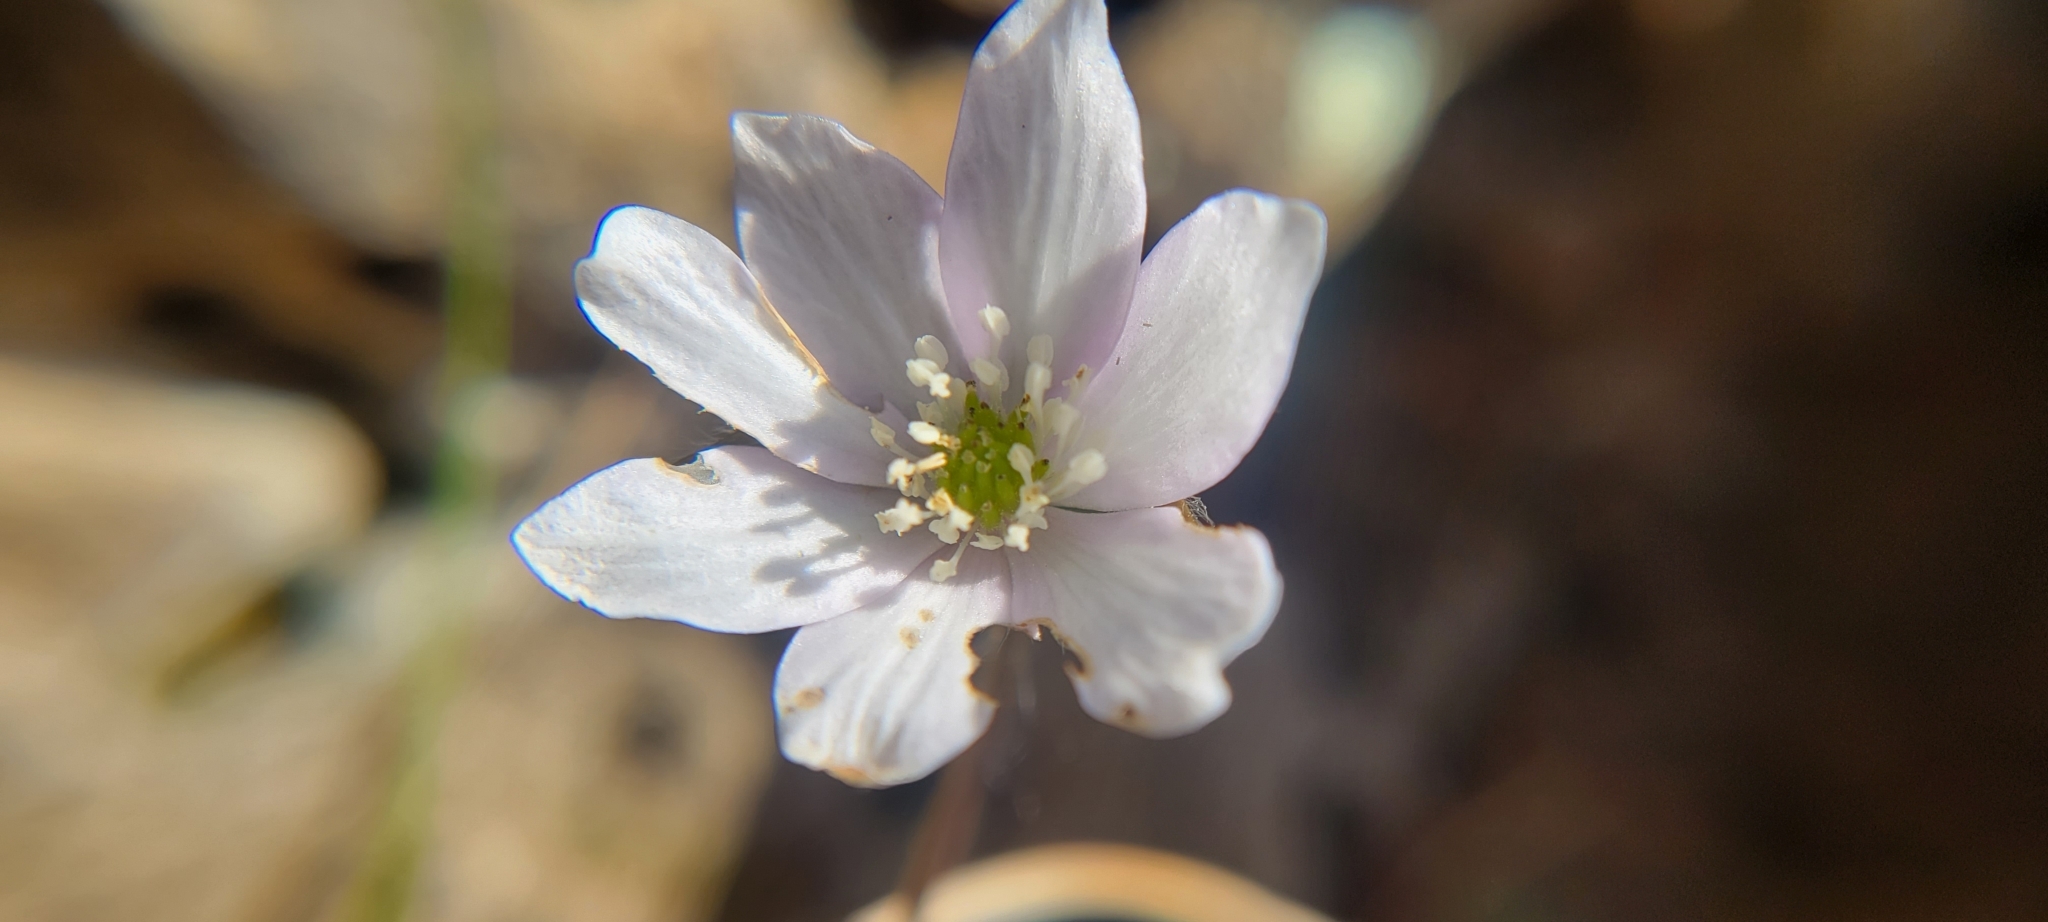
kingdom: Plantae
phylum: Tracheophyta
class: Magnoliopsida
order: Ranunculales
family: Ranunculaceae
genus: Hepatica
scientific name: Hepatica acutiloba
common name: Sharp-lobed hepatica
